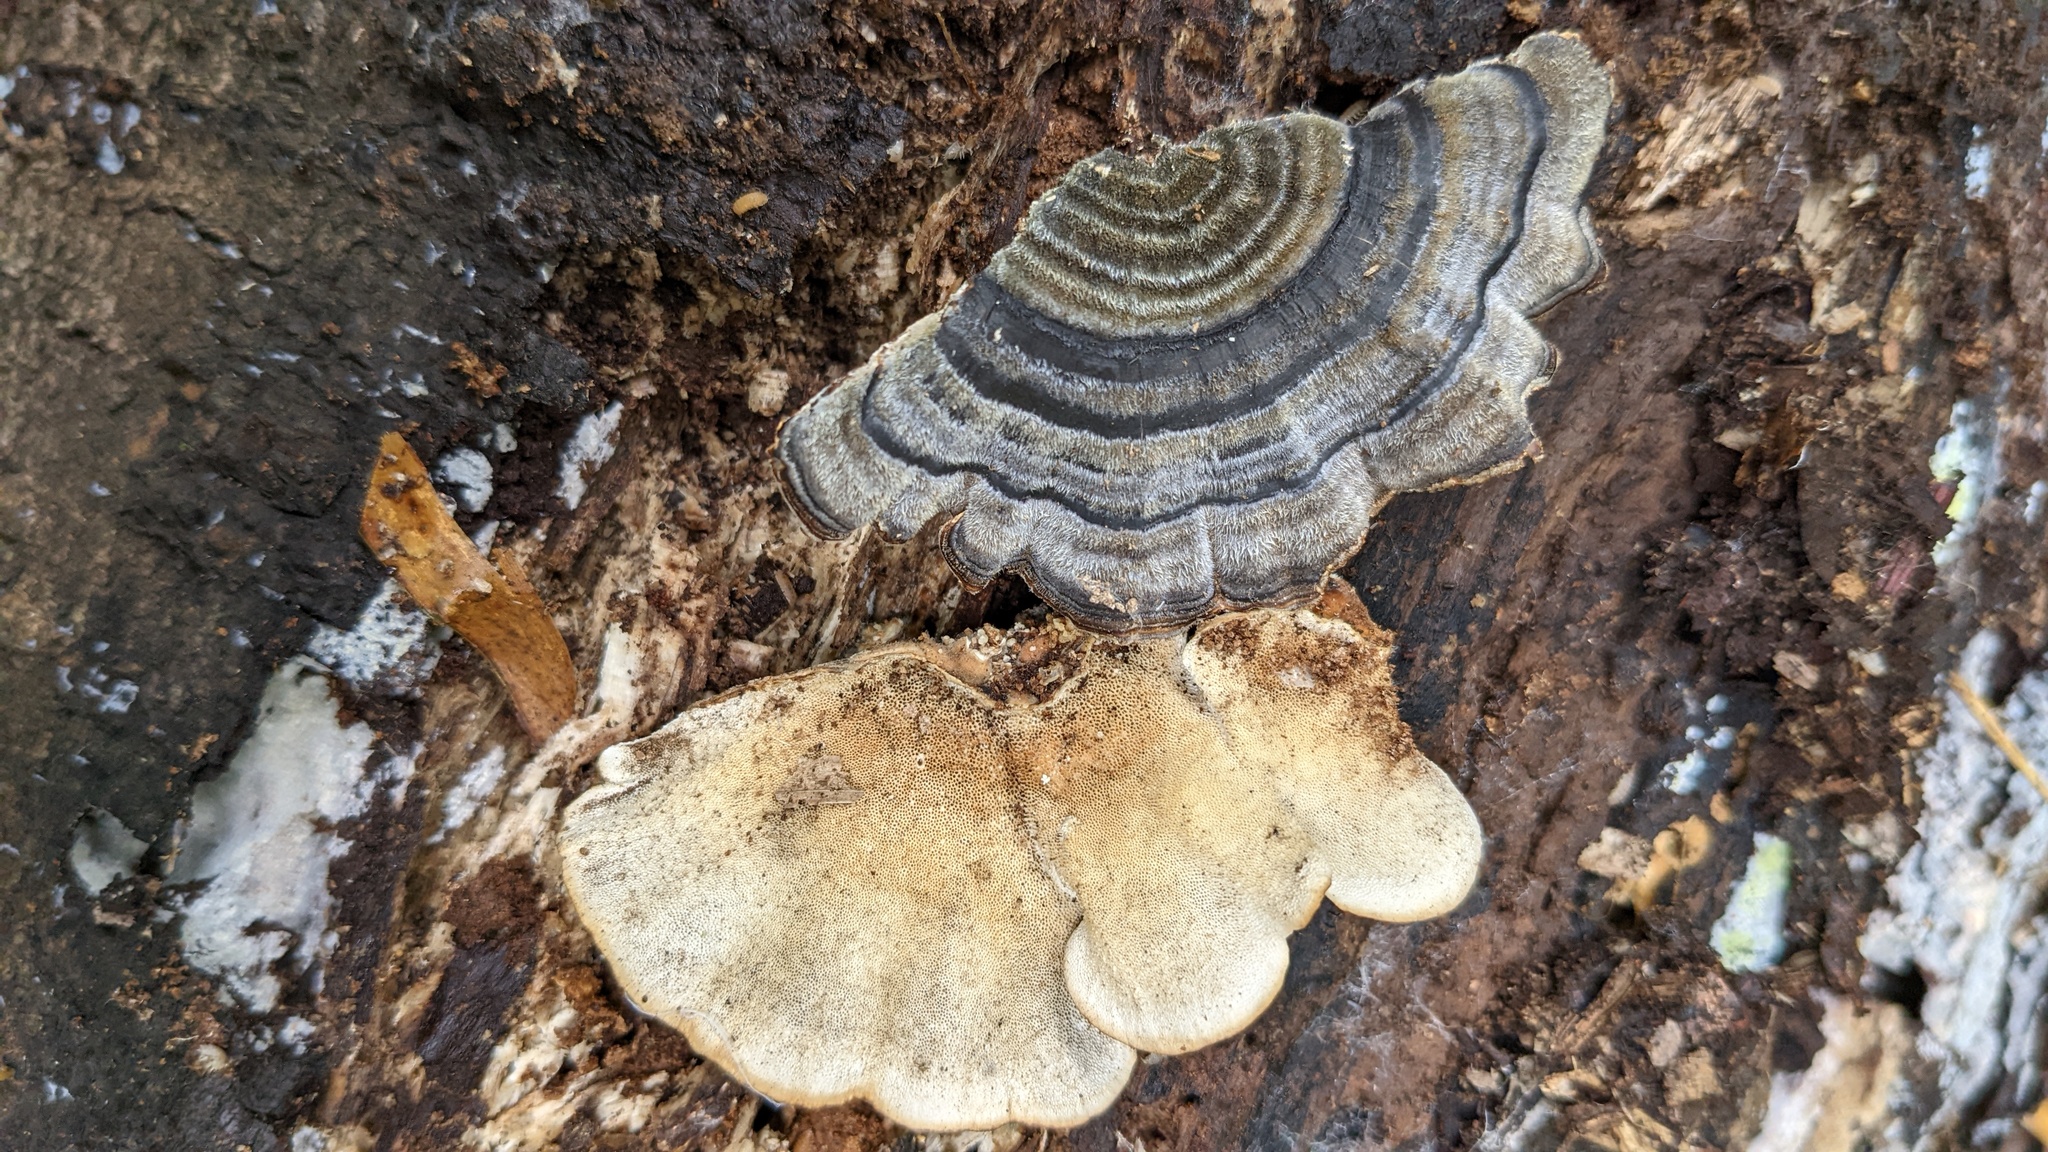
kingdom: Fungi
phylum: Basidiomycota
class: Agaricomycetes
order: Polyporales
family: Polyporaceae
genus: Trametes
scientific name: Trametes versicolor
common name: Turkeytail
